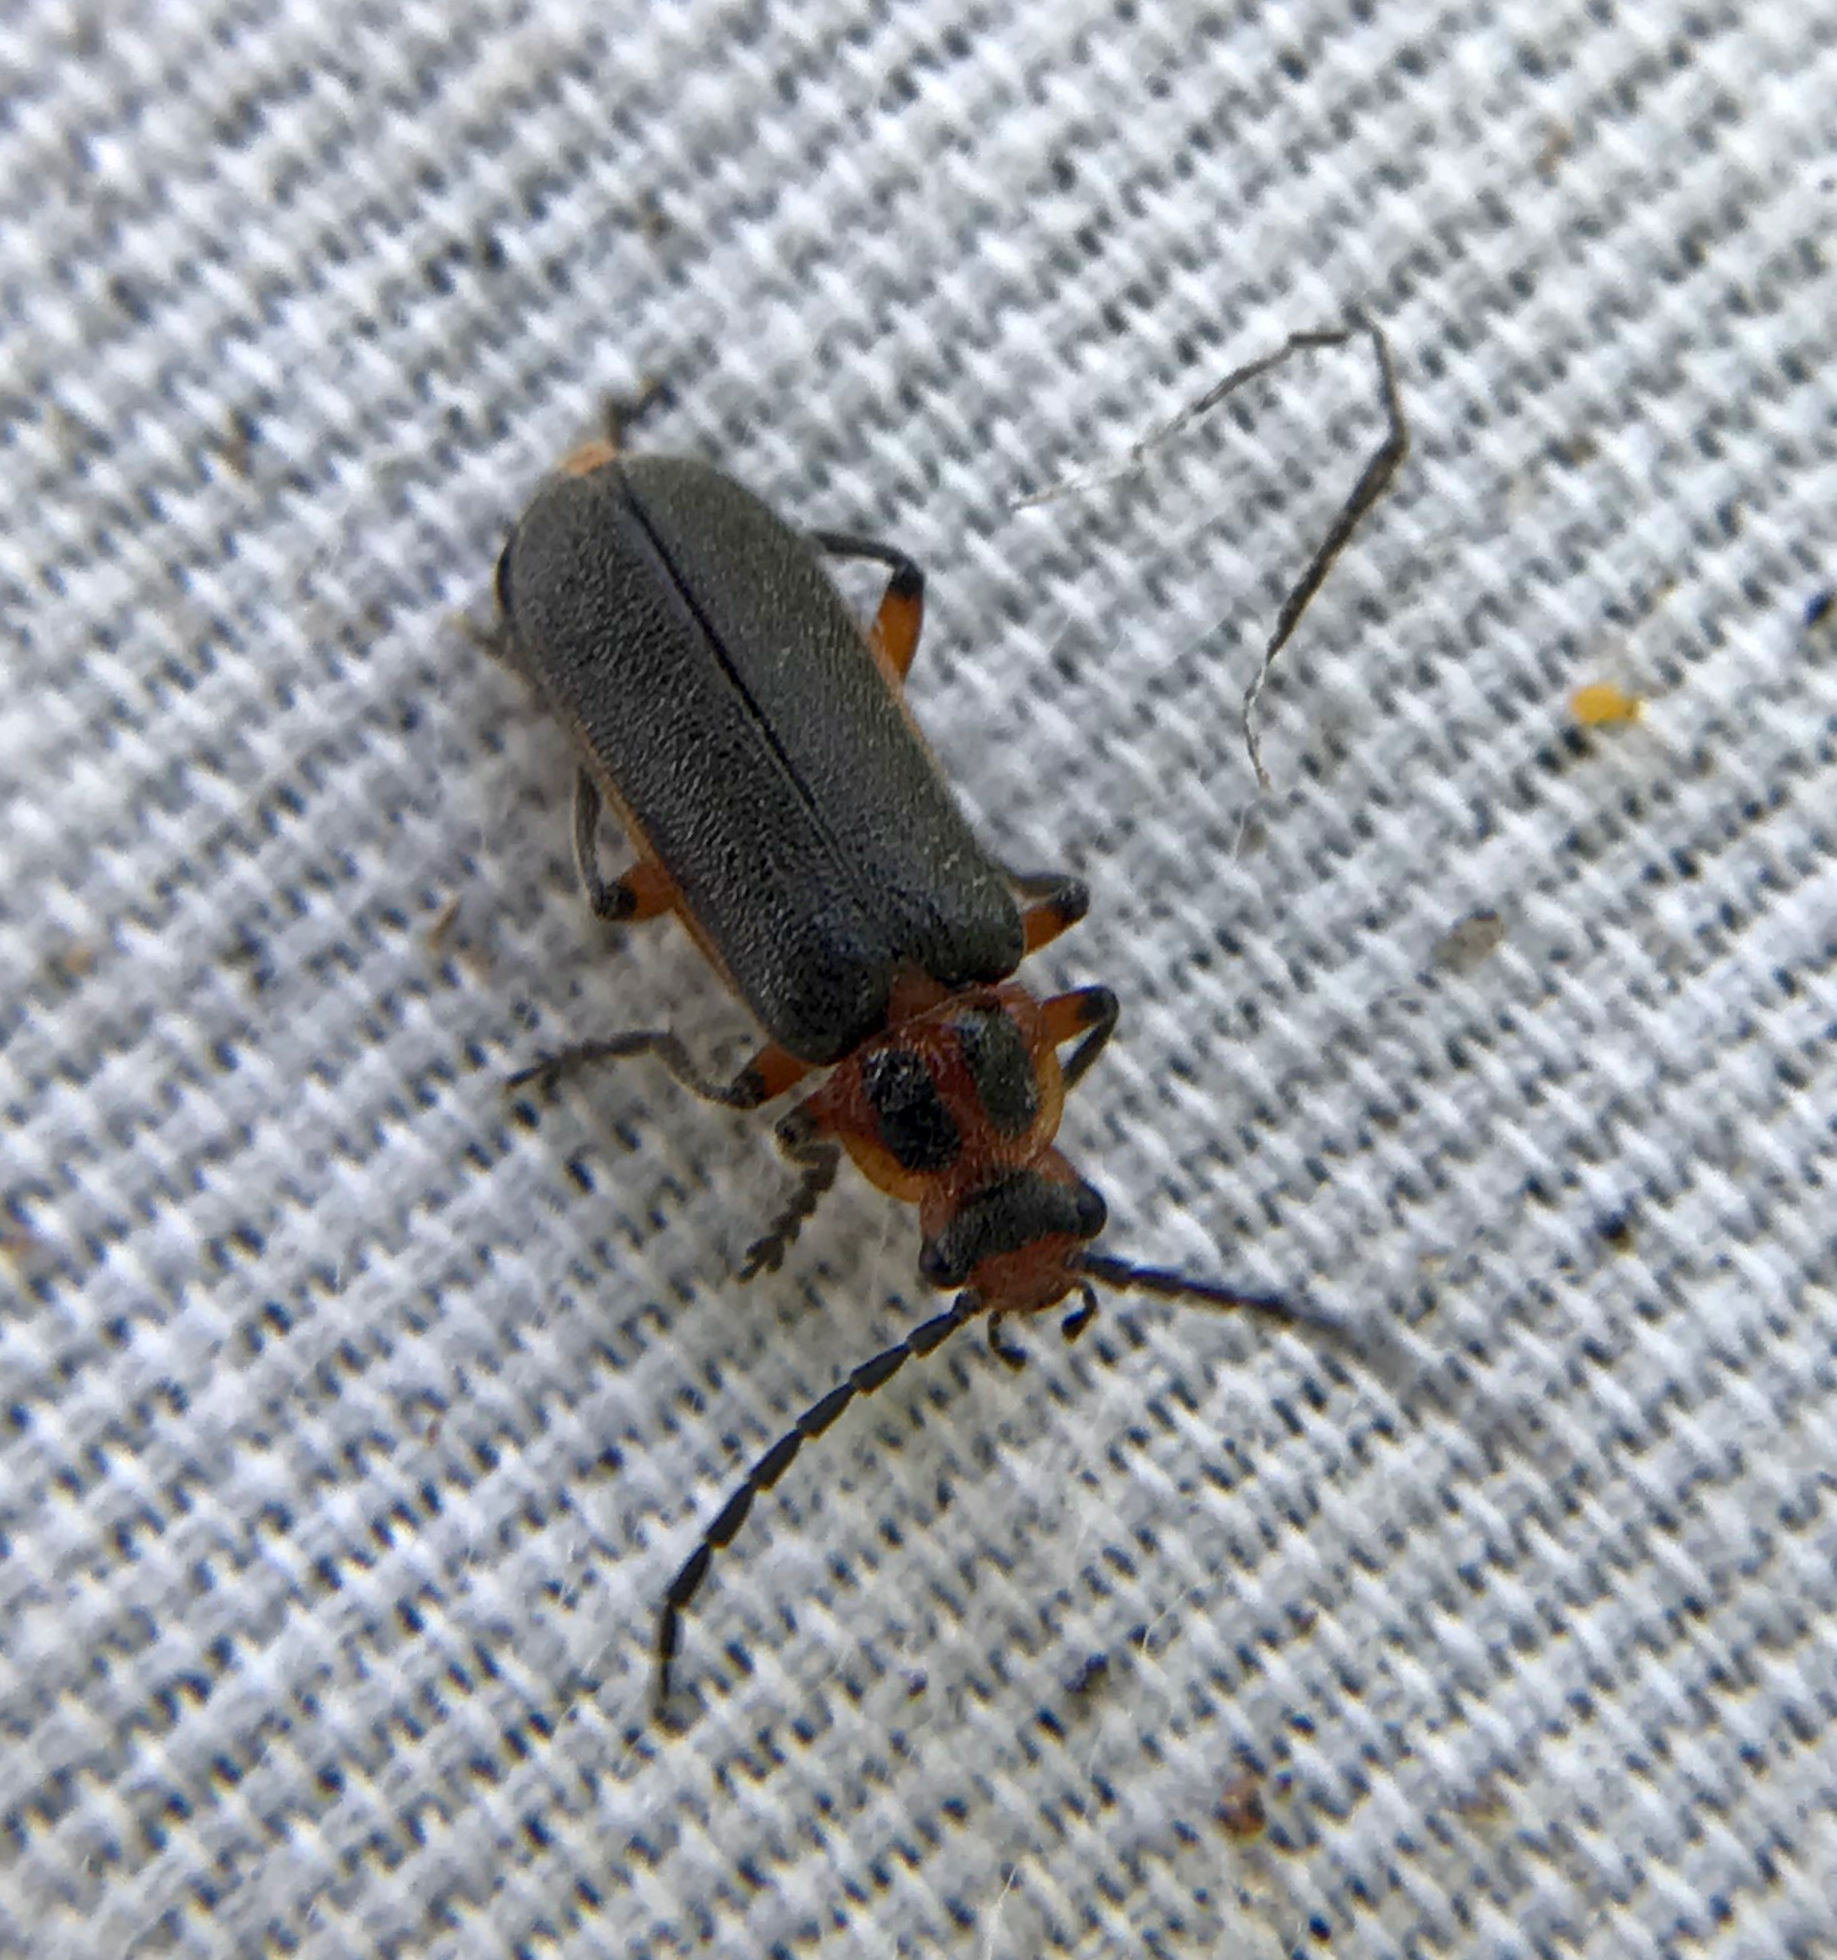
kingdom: Animalia
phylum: Arthropoda
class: Insecta
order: Coleoptera
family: Cantharidae
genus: Atalantycha
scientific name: Atalantycha bilineata
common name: Two-lined leatherwing
